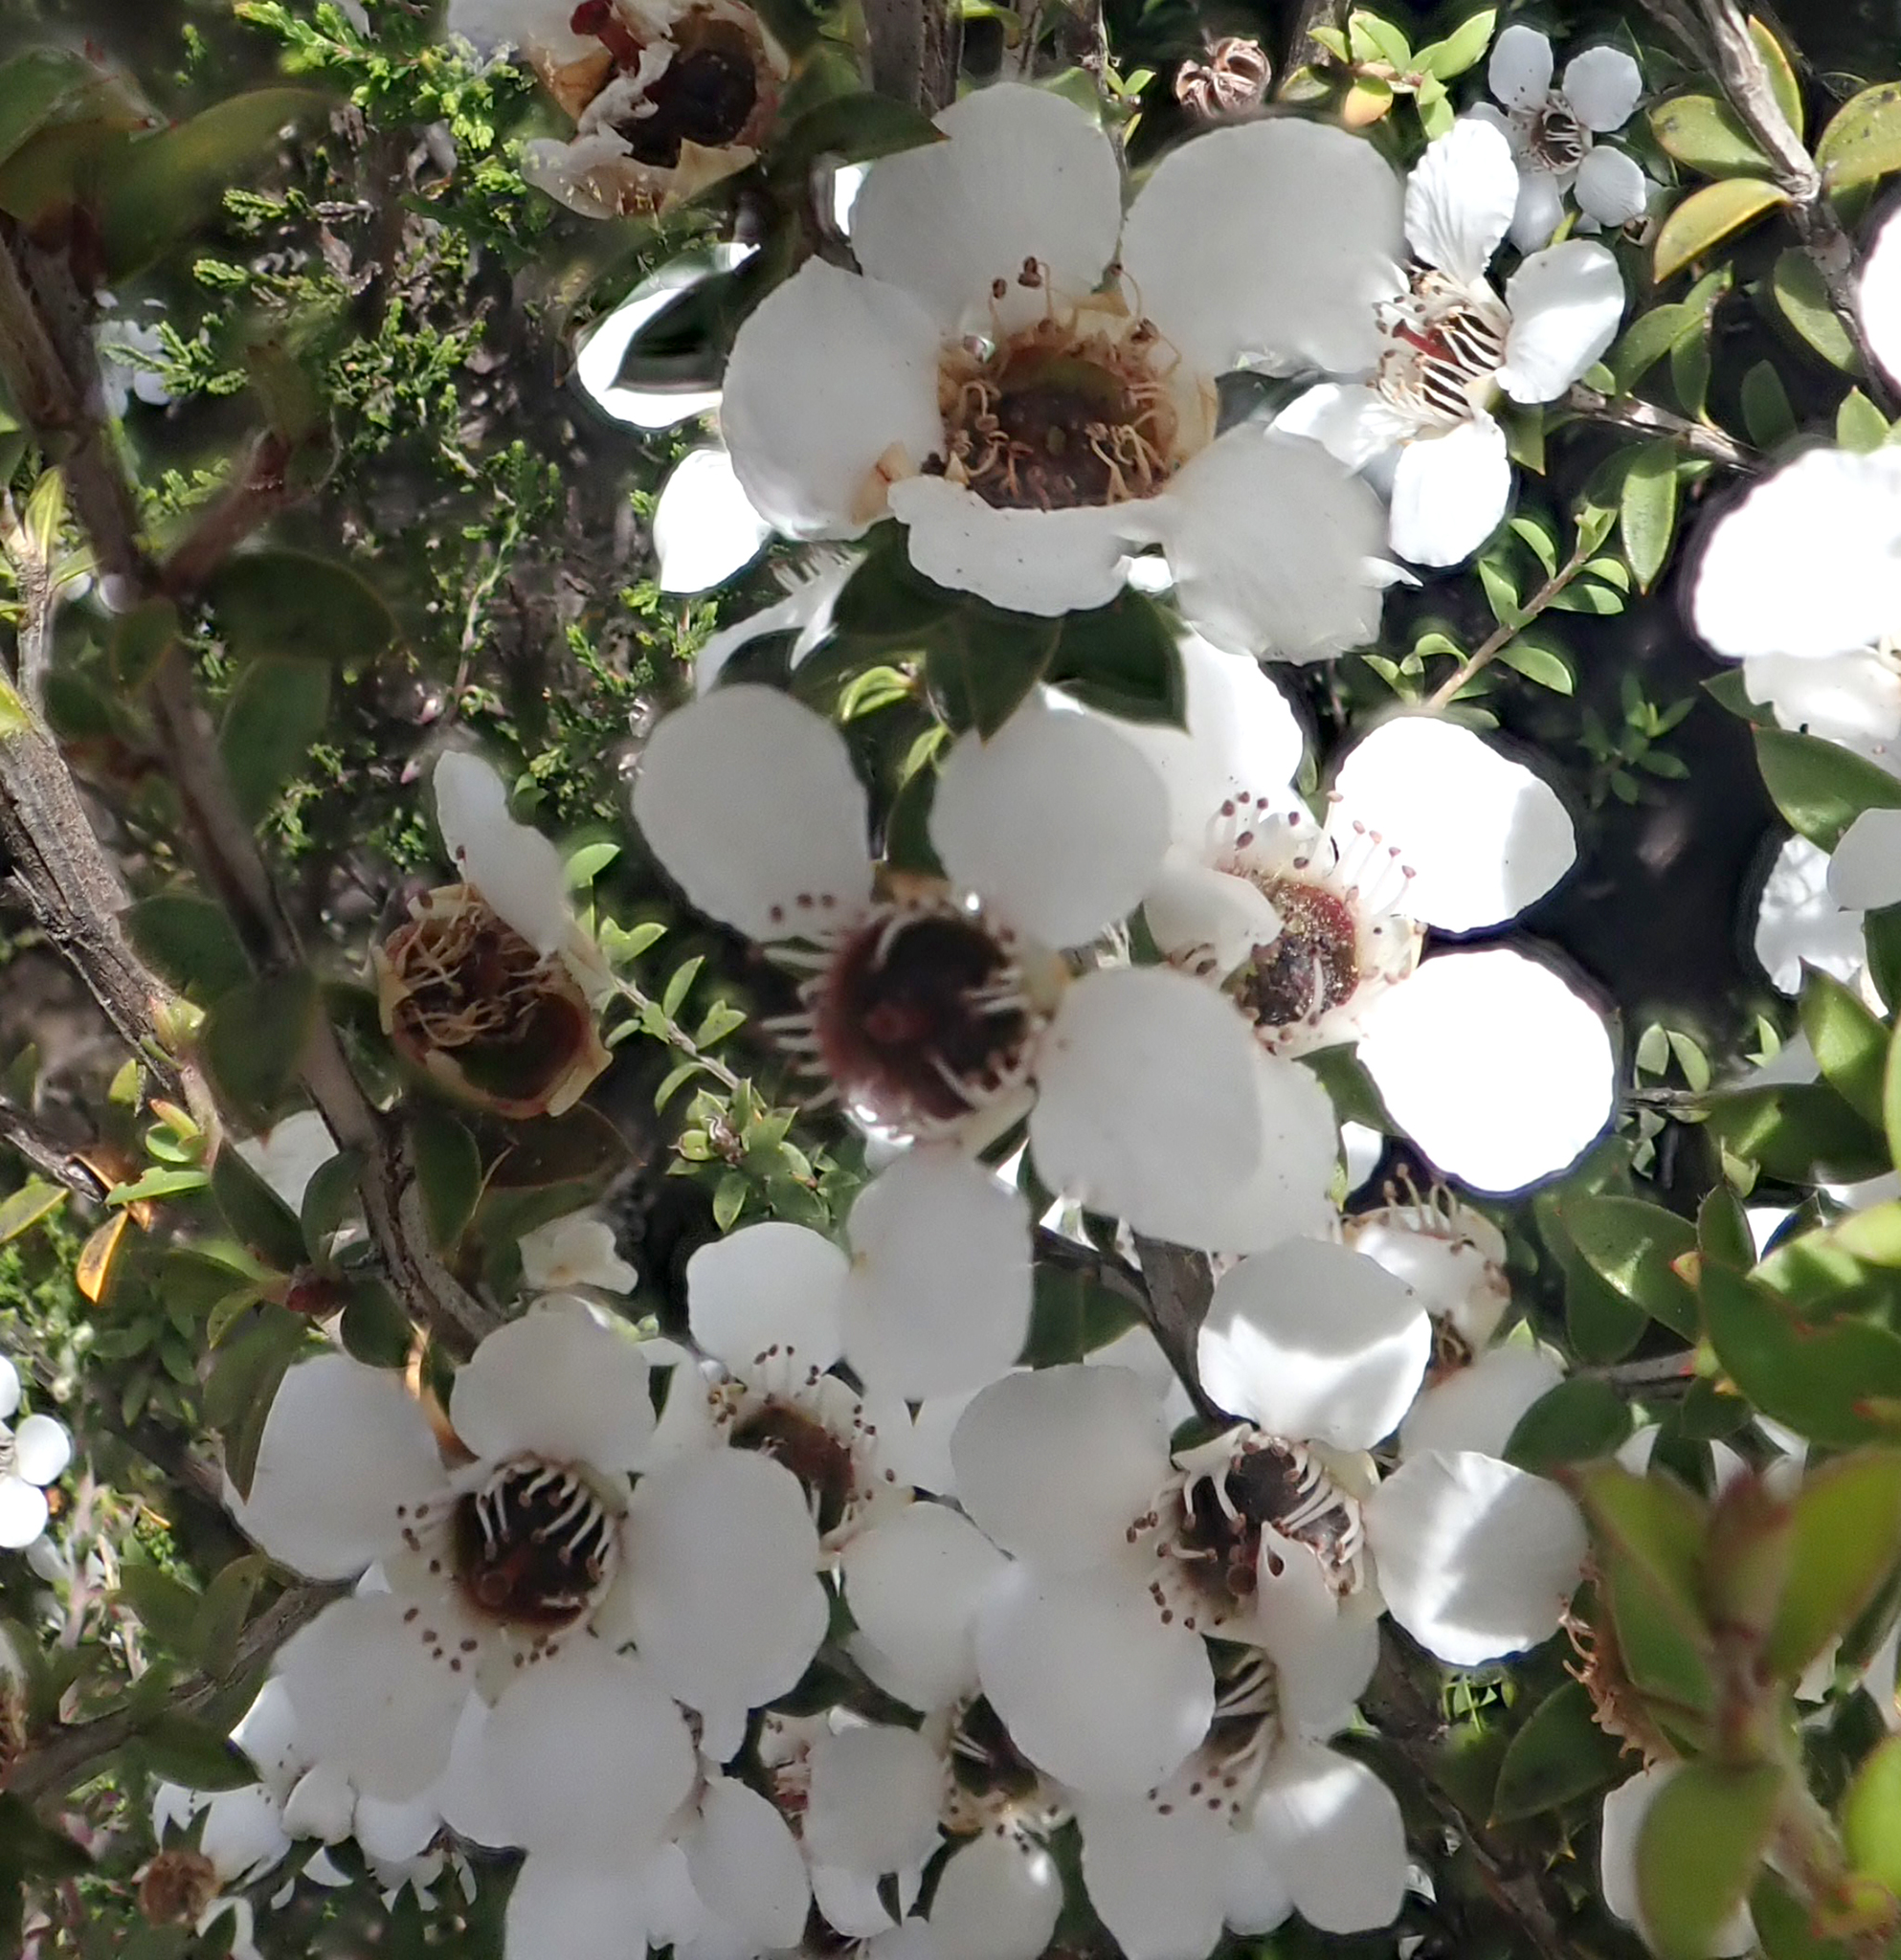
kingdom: Plantae
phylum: Tracheophyta
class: Magnoliopsida
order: Myrtales
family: Myrtaceae
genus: Leptospermum
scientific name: Leptospermum scoparium
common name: Broom tea-tree
